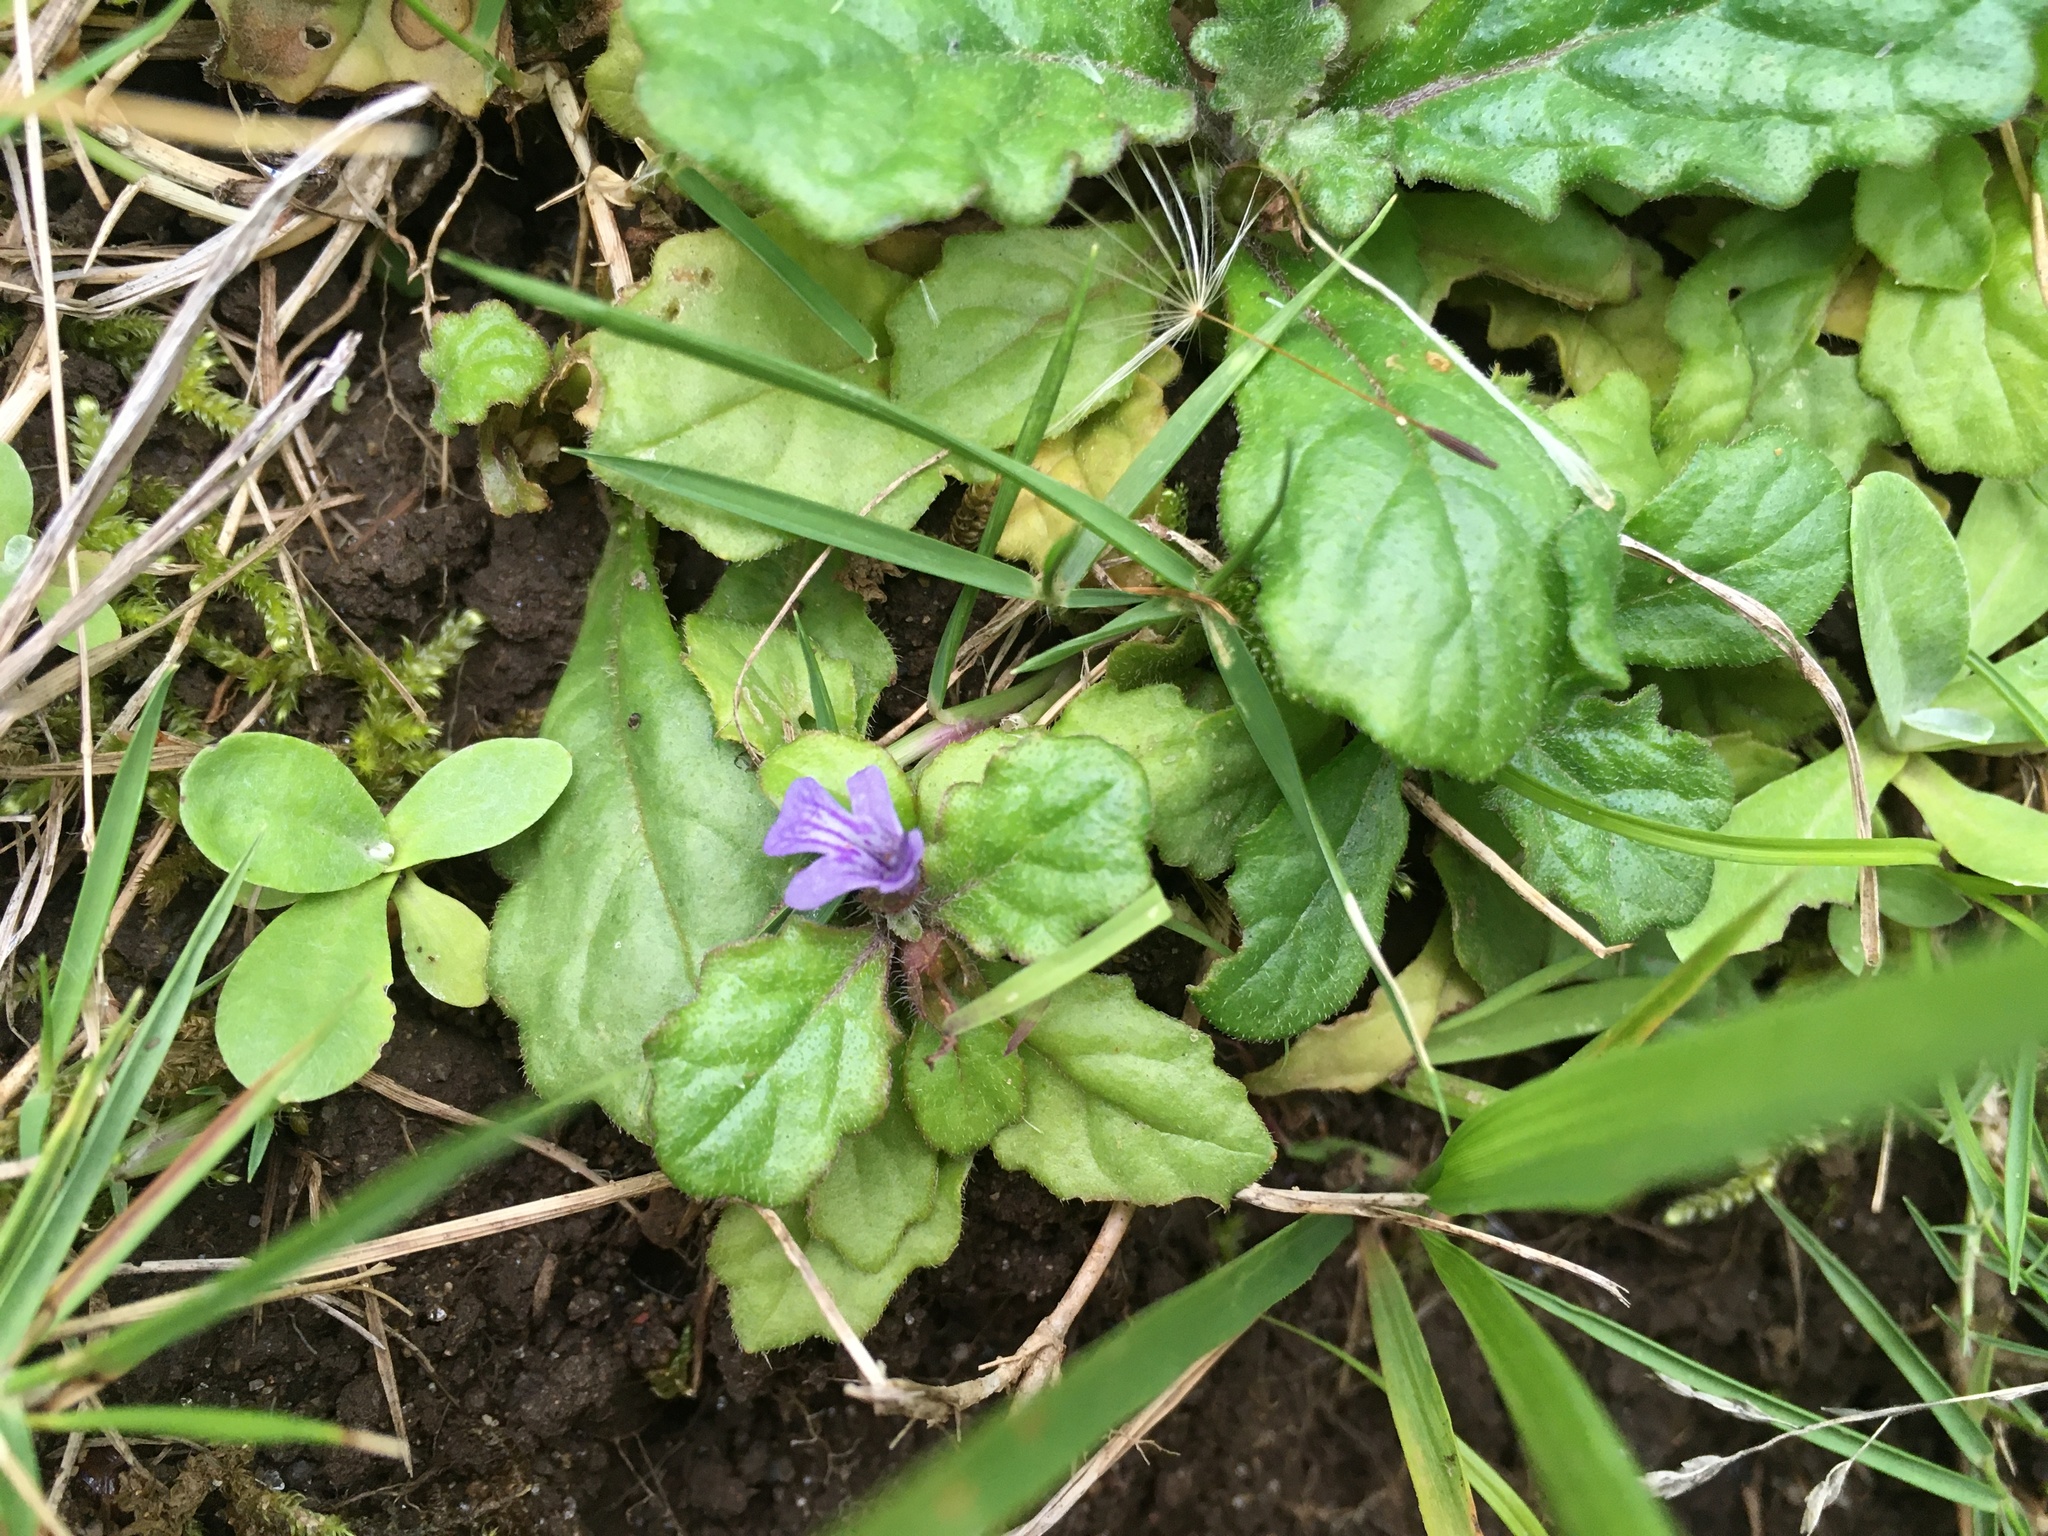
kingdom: Plantae
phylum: Tracheophyta
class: Magnoliopsida
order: Lamiales
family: Lamiaceae
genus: Ajuga
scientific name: Ajuga decumbens
